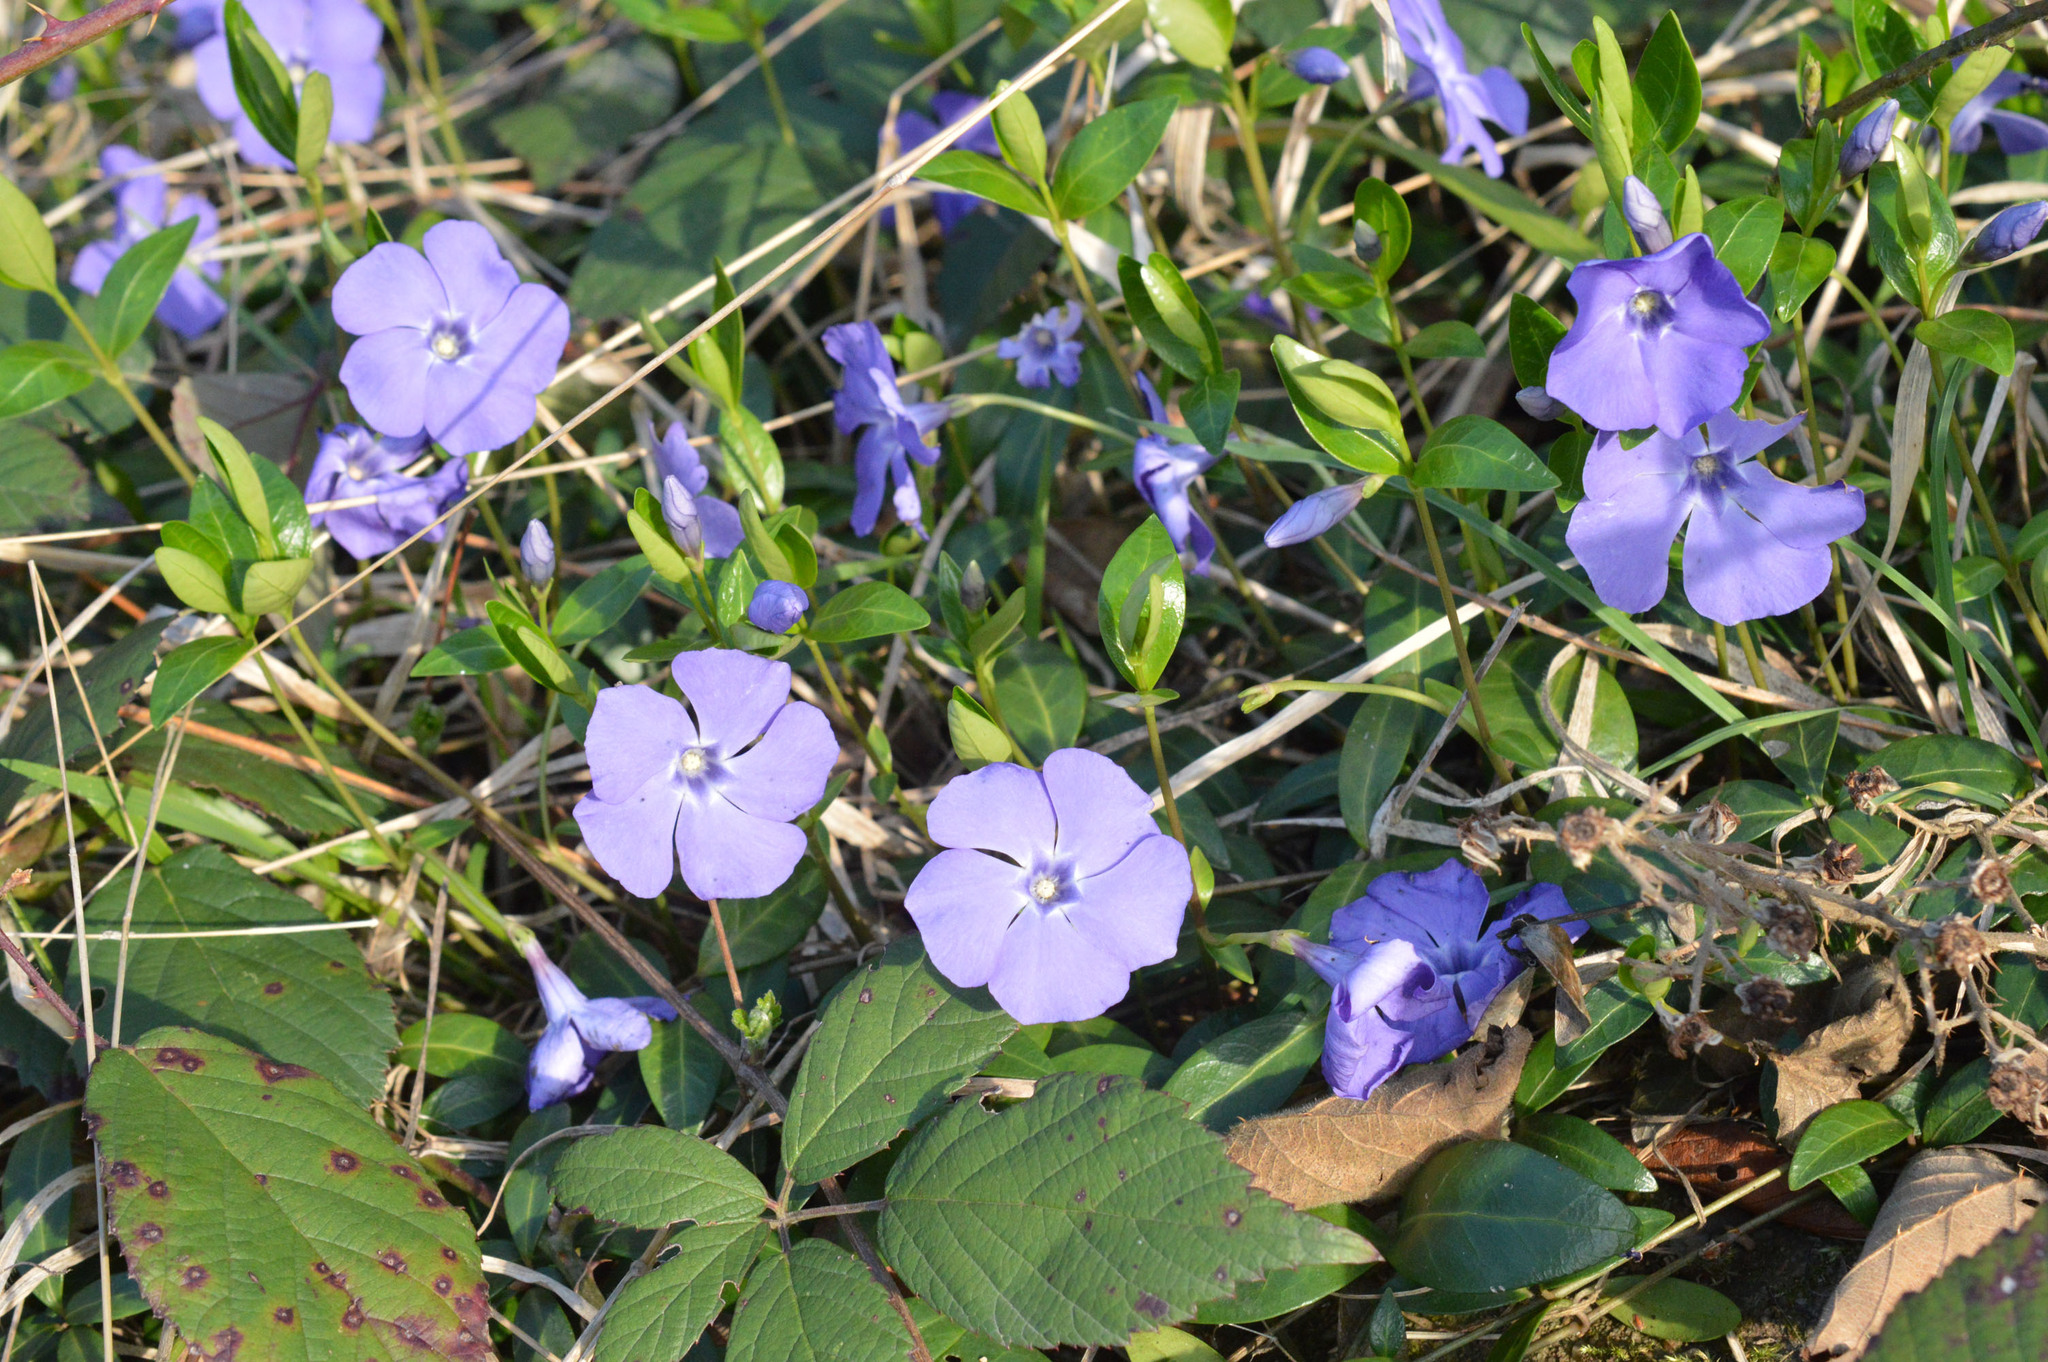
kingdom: Plantae
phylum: Tracheophyta
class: Magnoliopsida
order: Gentianales
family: Apocynaceae
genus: Vinca
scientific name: Vinca minor
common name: Lesser periwinkle
